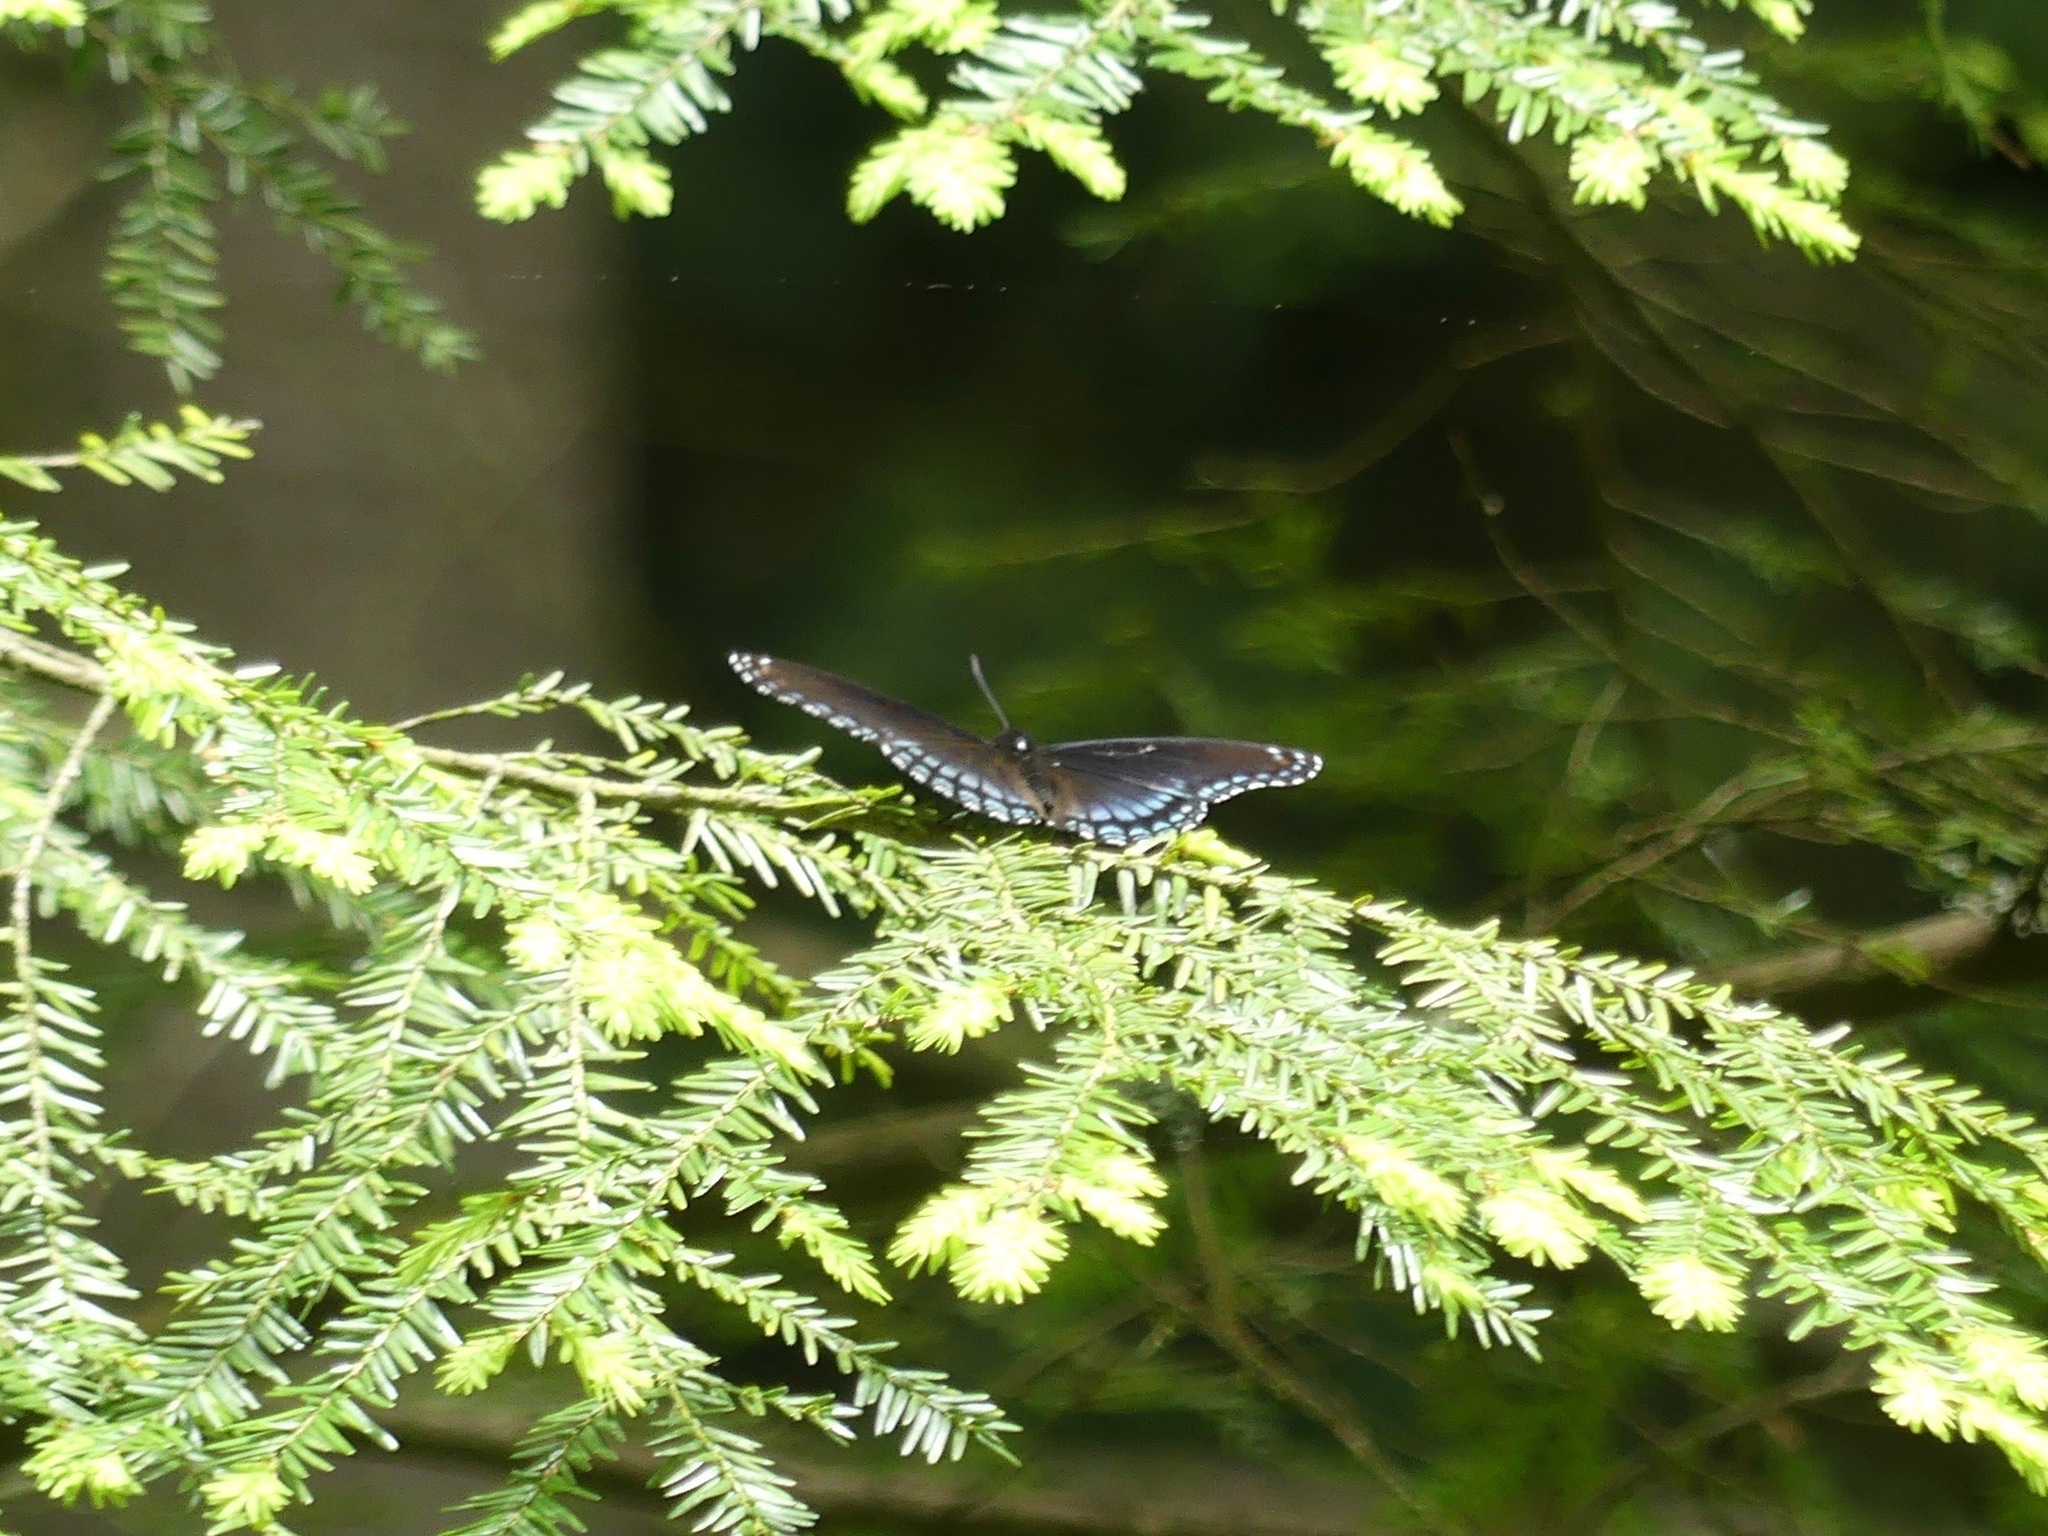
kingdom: Animalia
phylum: Arthropoda
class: Insecta
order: Lepidoptera
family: Nymphalidae
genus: Limenitis
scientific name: Limenitis astyanax
